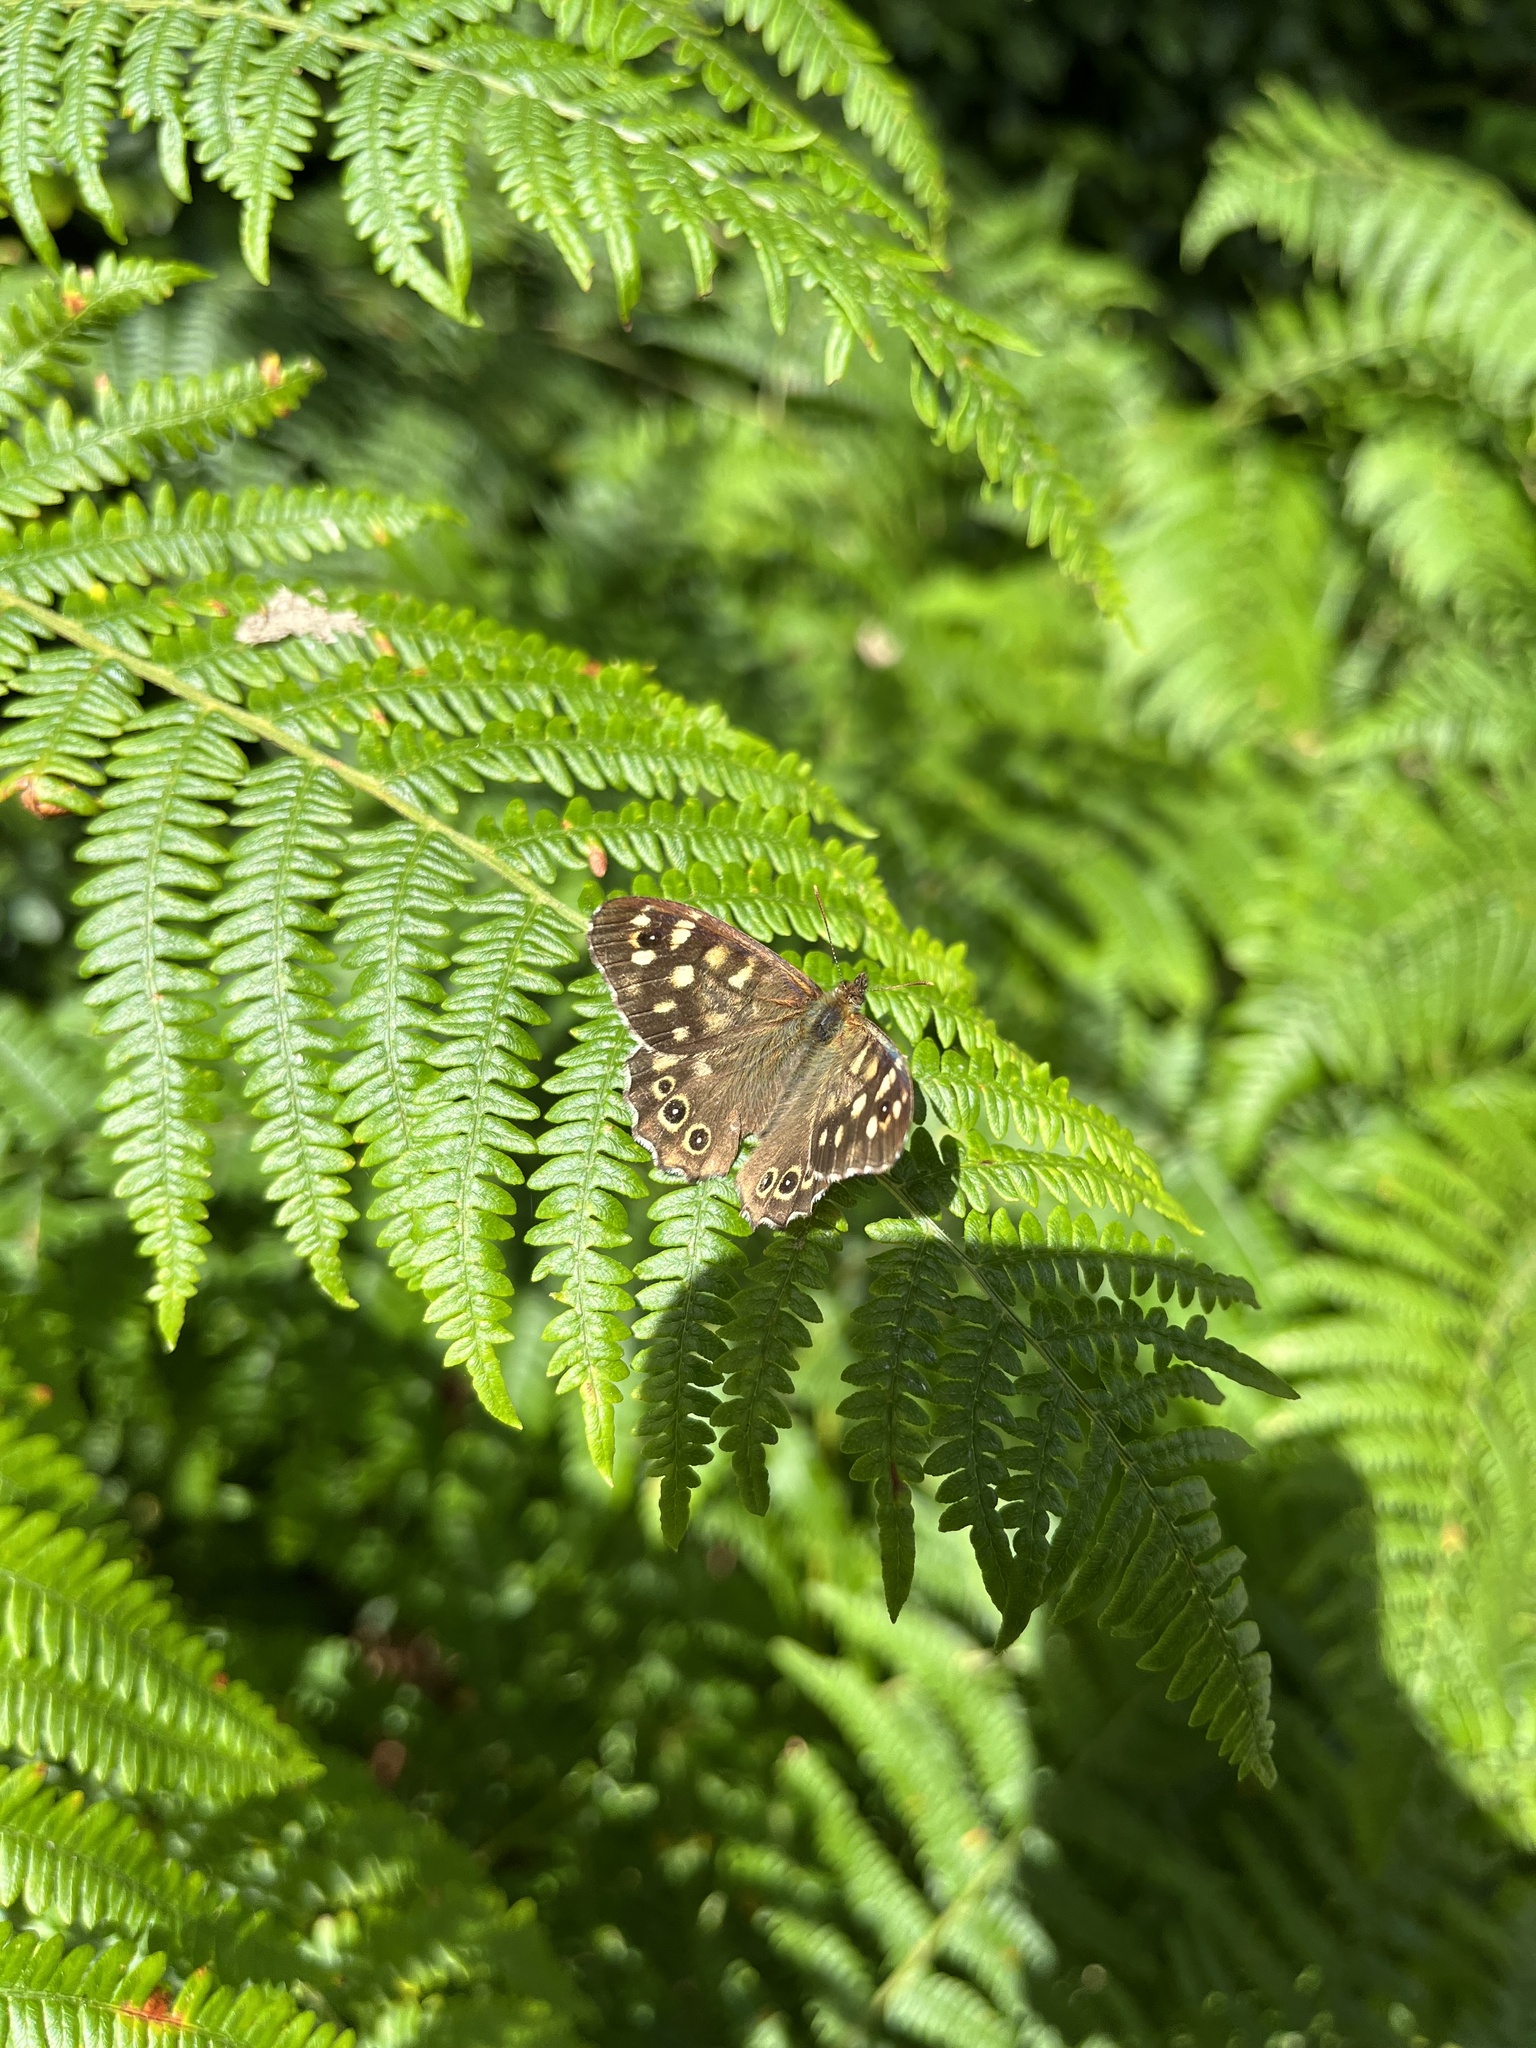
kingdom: Animalia
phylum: Arthropoda
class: Insecta
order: Lepidoptera
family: Nymphalidae
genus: Pararge
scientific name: Pararge aegeria
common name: Speckled wood
